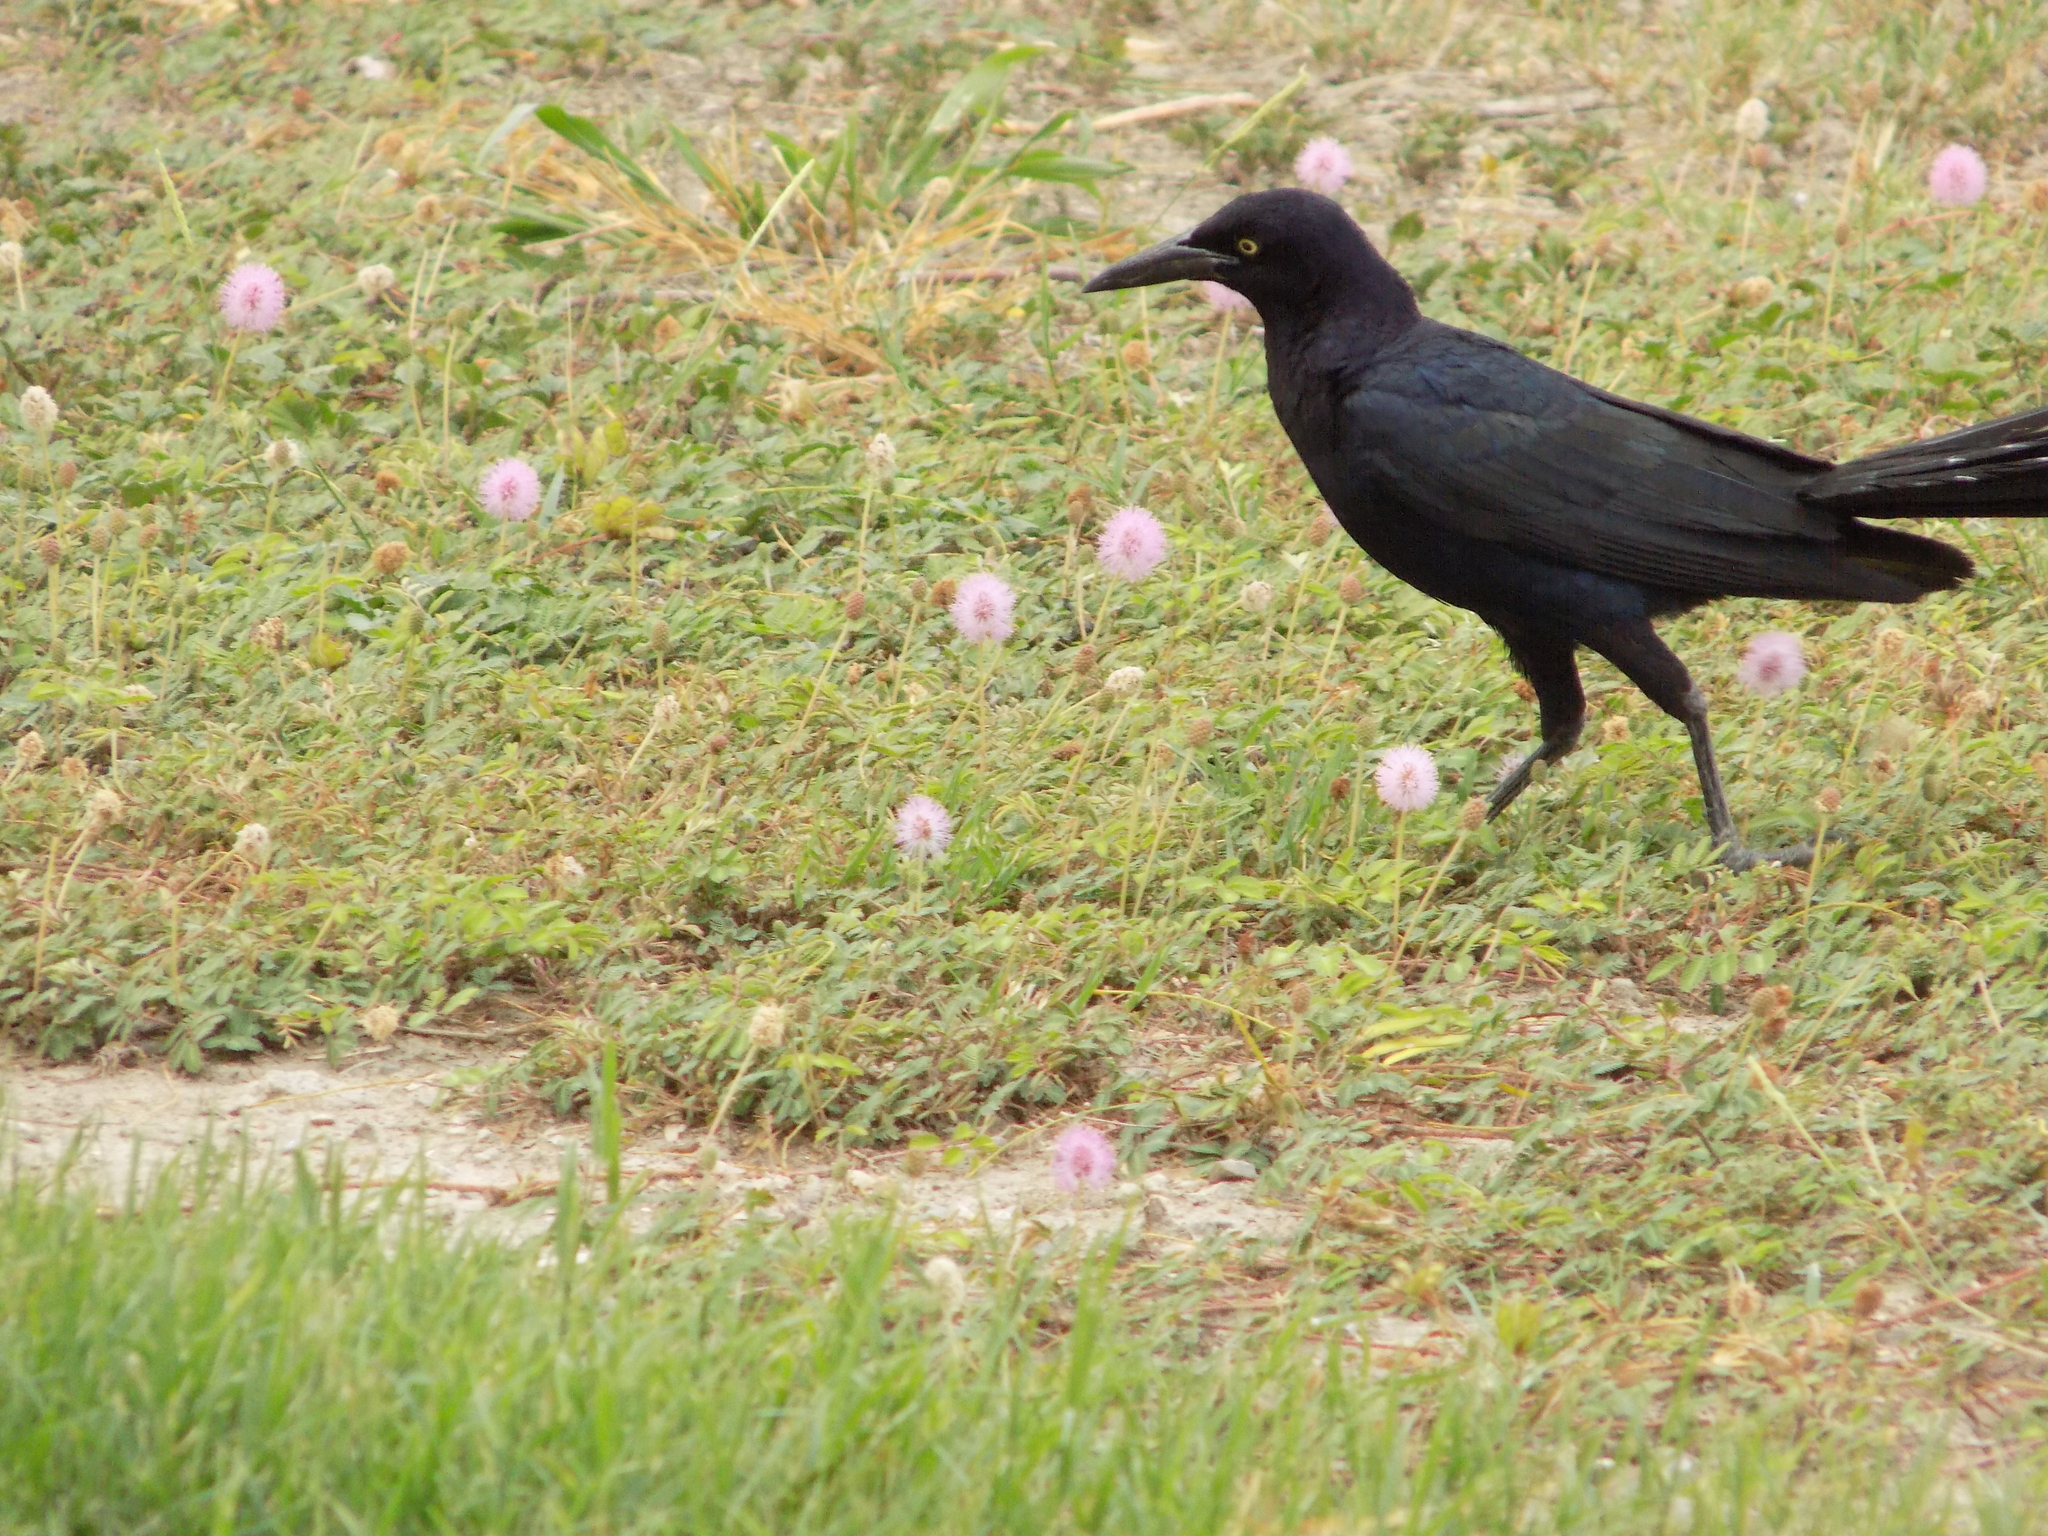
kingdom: Animalia
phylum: Chordata
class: Aves
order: Passeriformes
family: Icteridae
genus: Quiscalus
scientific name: Quiscalus mexicanus
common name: Great-tailed grackle
